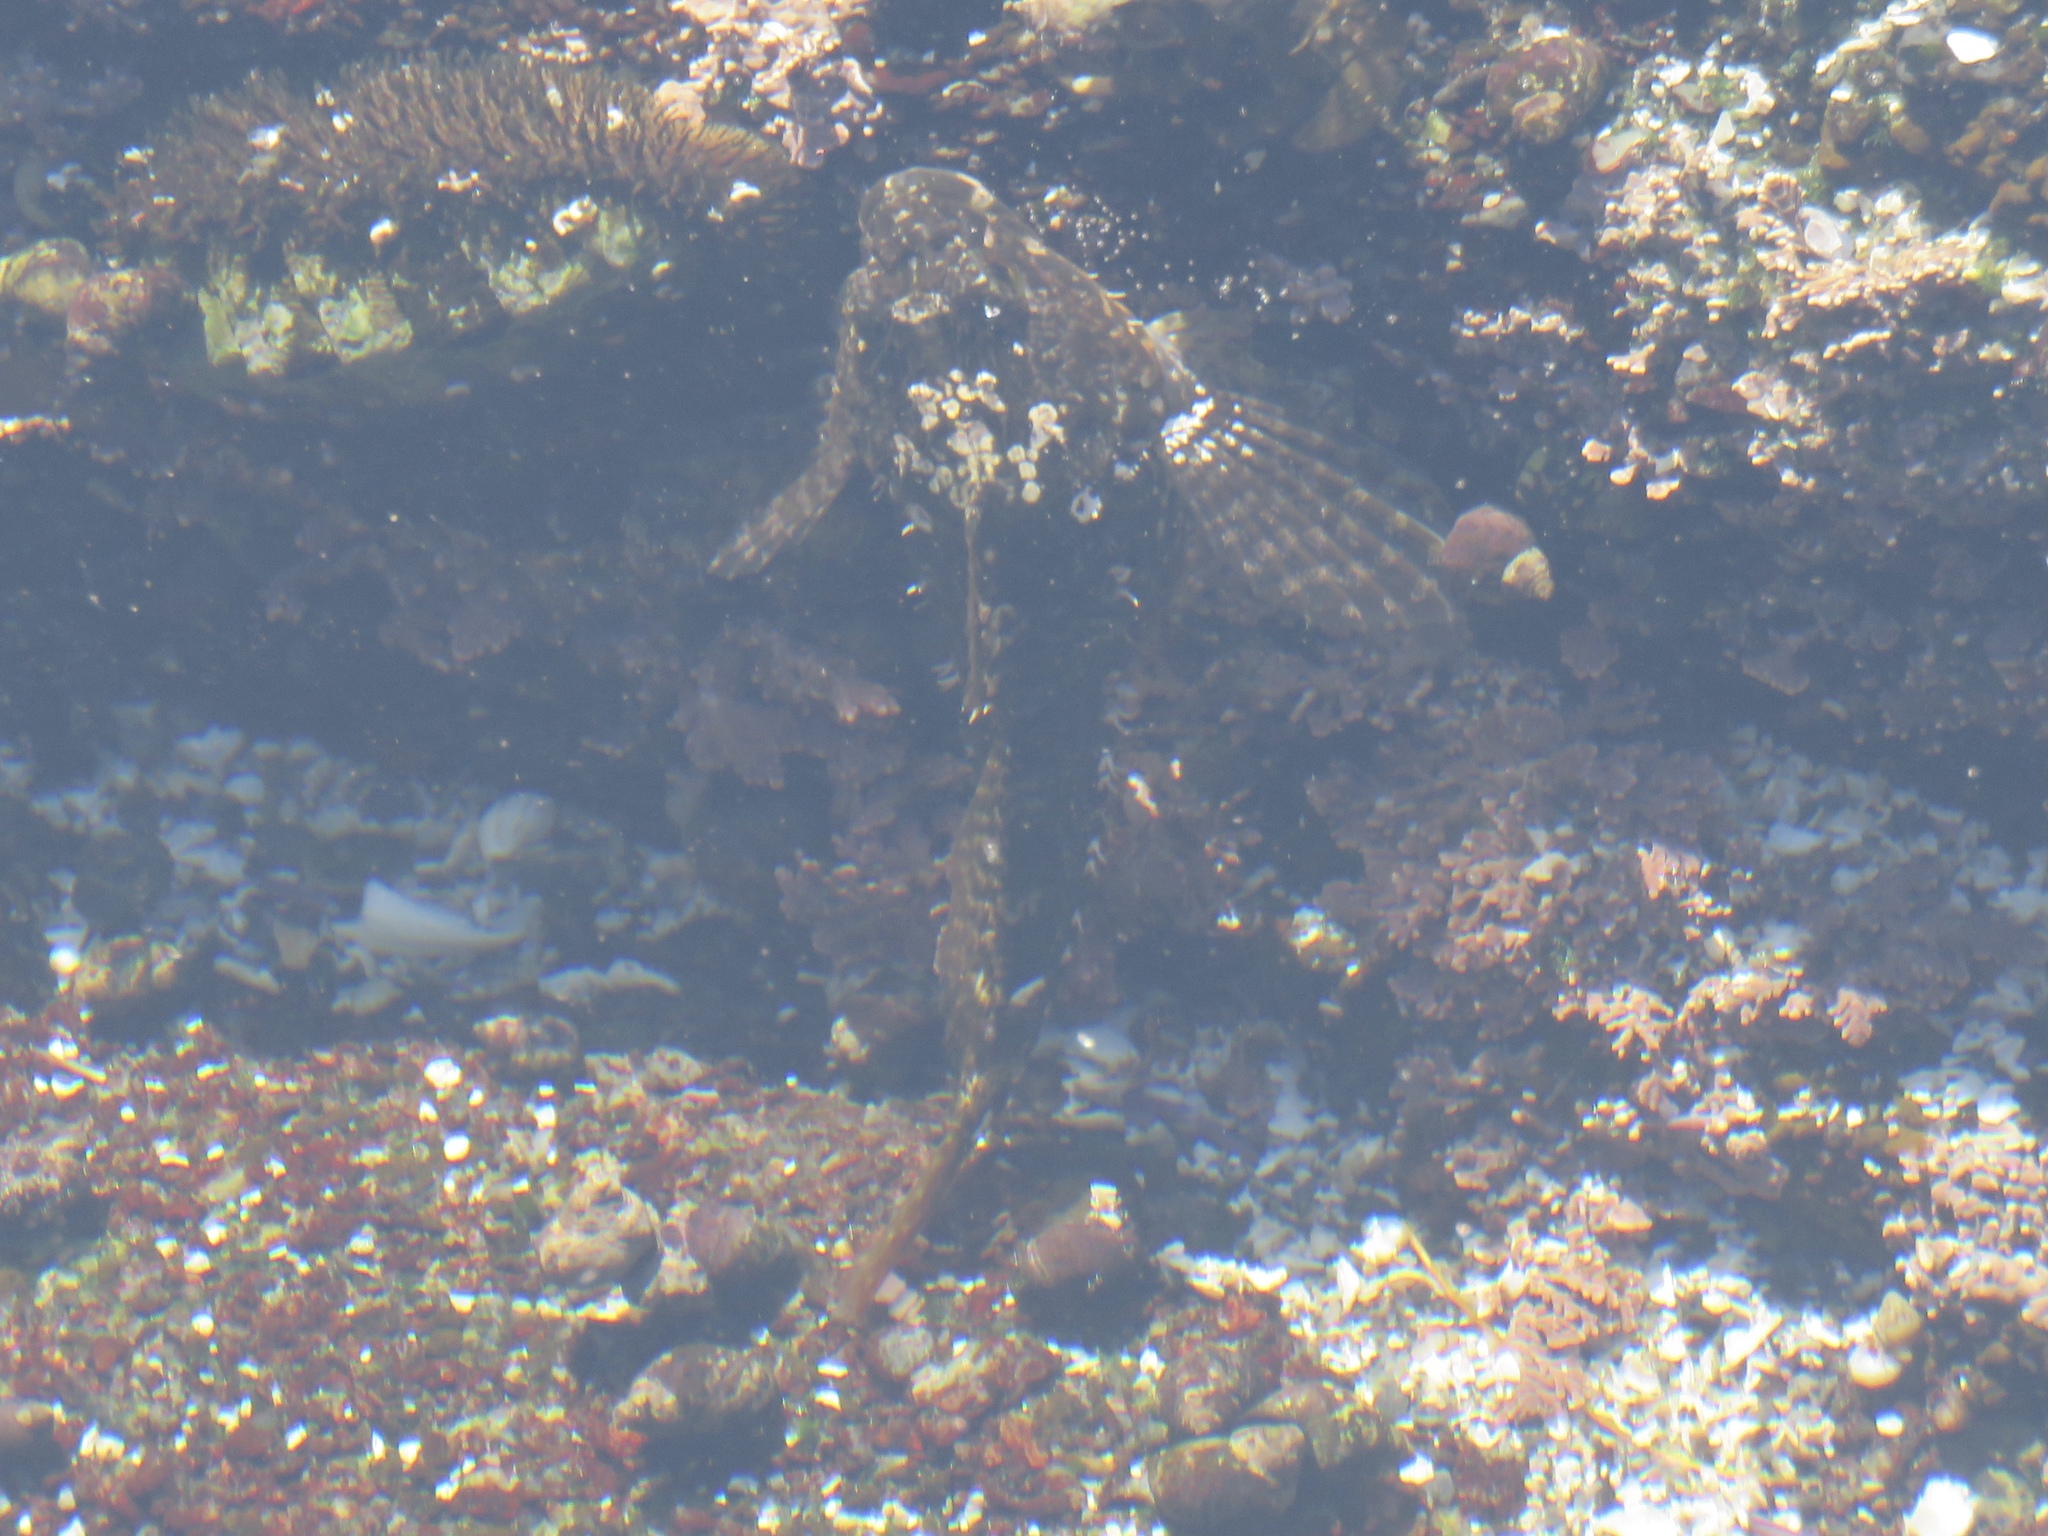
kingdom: Animalia
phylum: Chordata
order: Scorpaeniformes
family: Cottidae
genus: Oligocottus
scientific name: Oligocottus maculosus
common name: Tidepool sculpin
